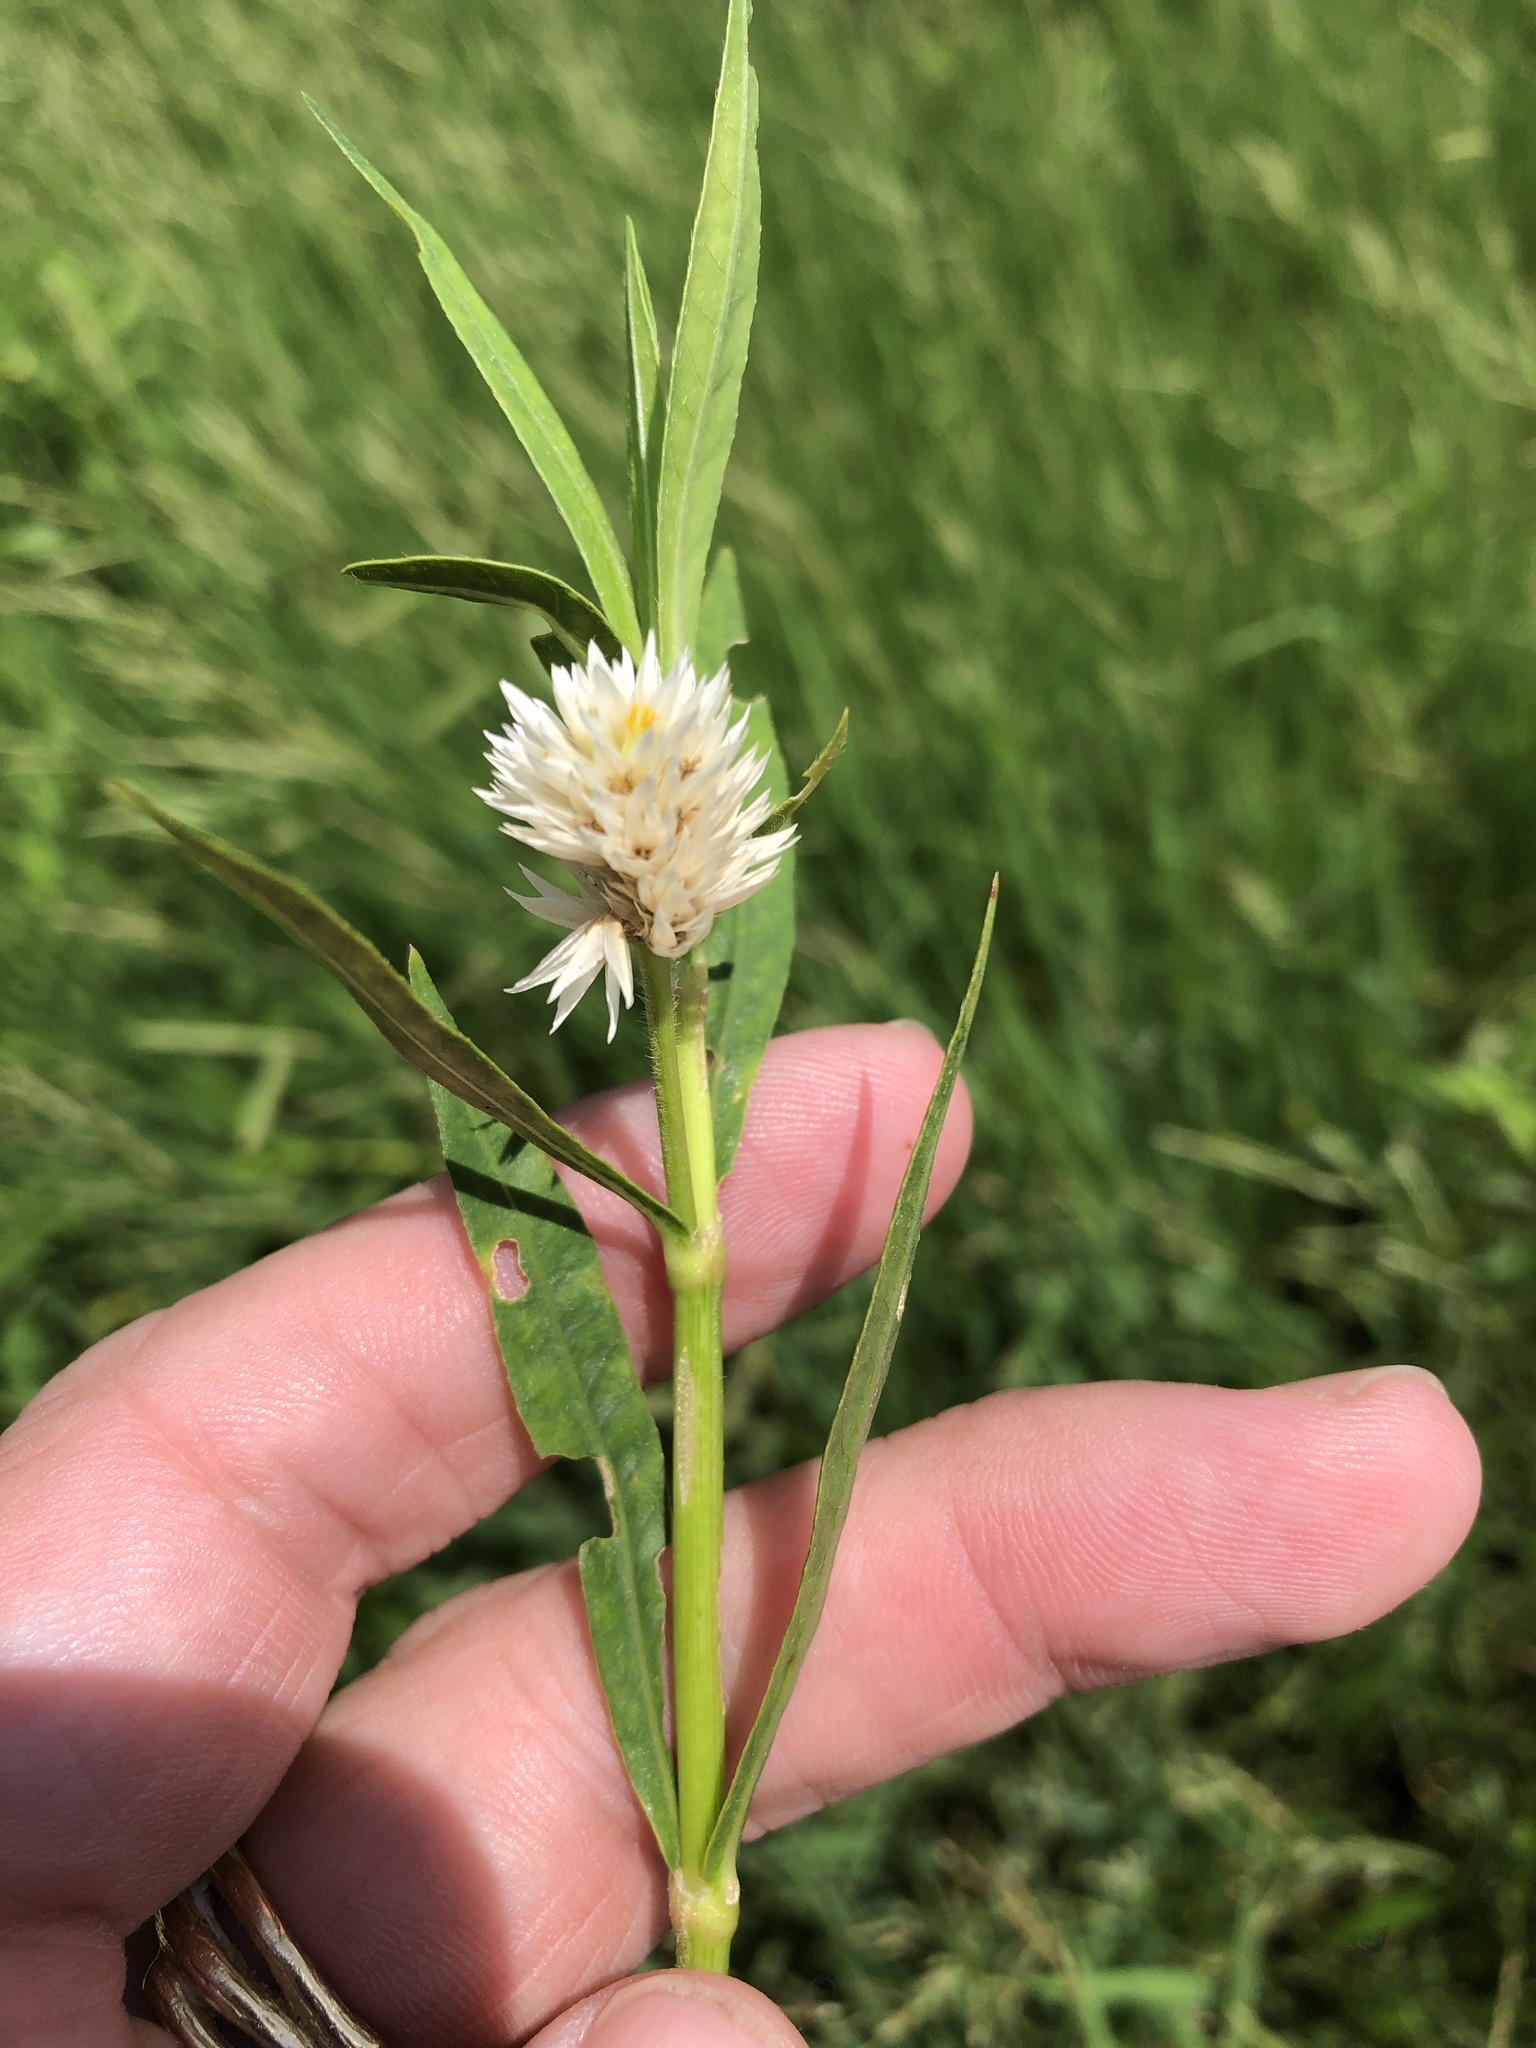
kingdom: Plantae
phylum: Tracheophyta
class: Magnoliopsida
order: Caryophyllales
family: Amaranthaceae
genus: Alternanthera
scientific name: Alternanthera philoxeroides
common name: Alligatorweed
